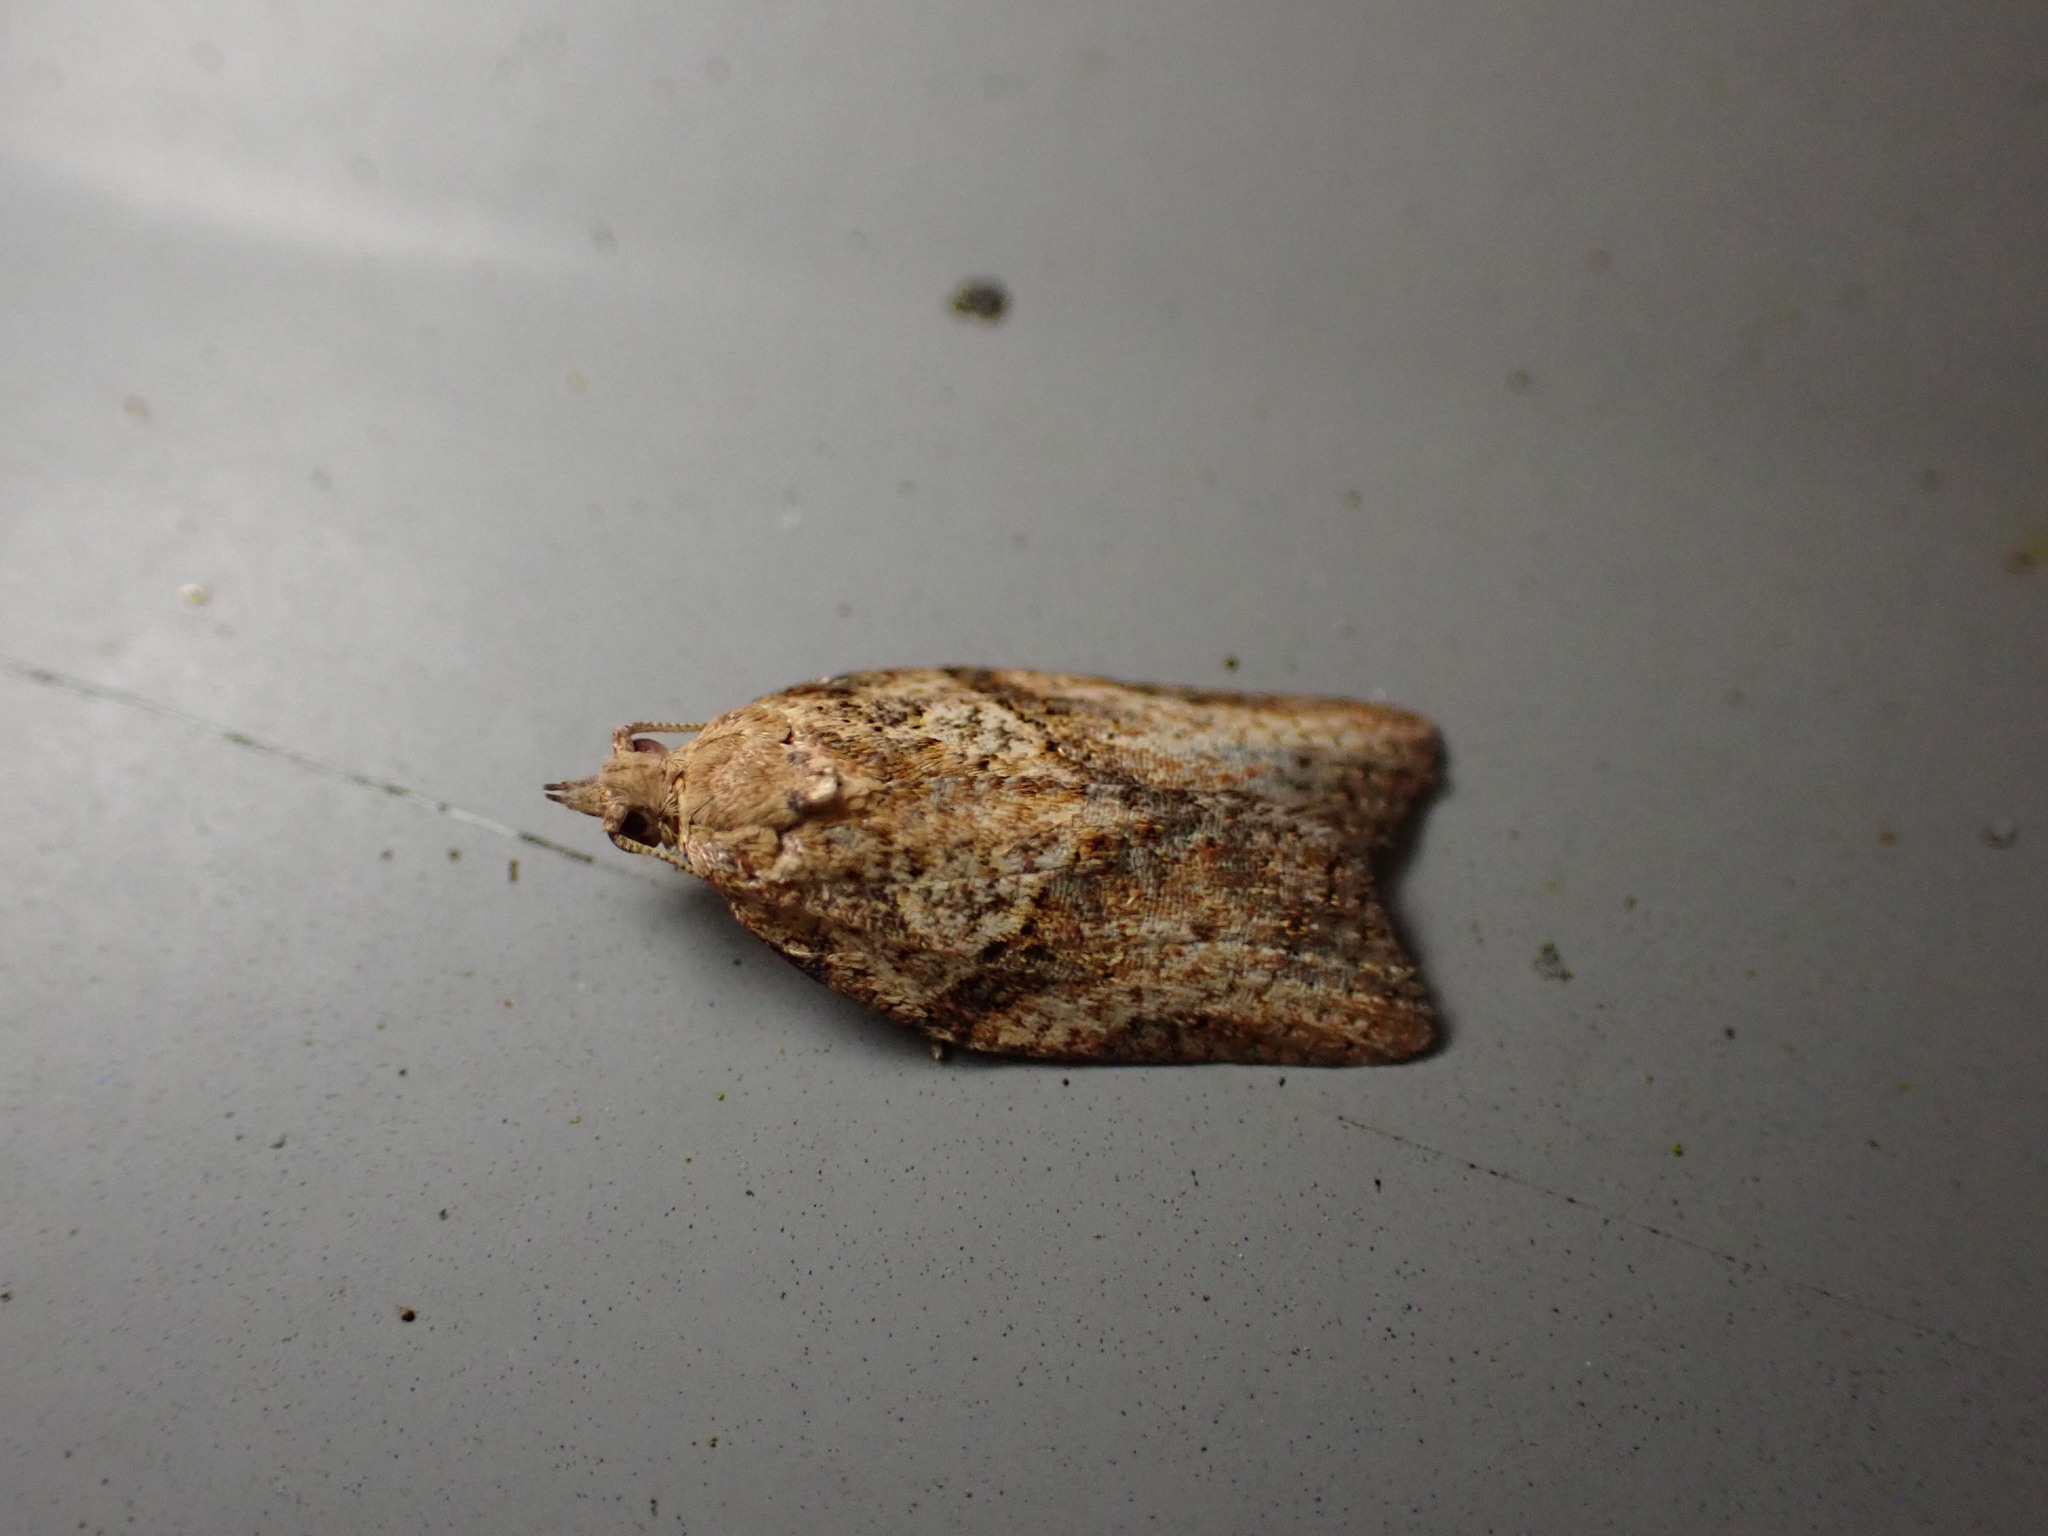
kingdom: Animalia
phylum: Arthropoda
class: Insecta
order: Lepidoptera
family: Tortricidae
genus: Epiphyas
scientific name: Epiphyas postvittana
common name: Light brown apple moth
